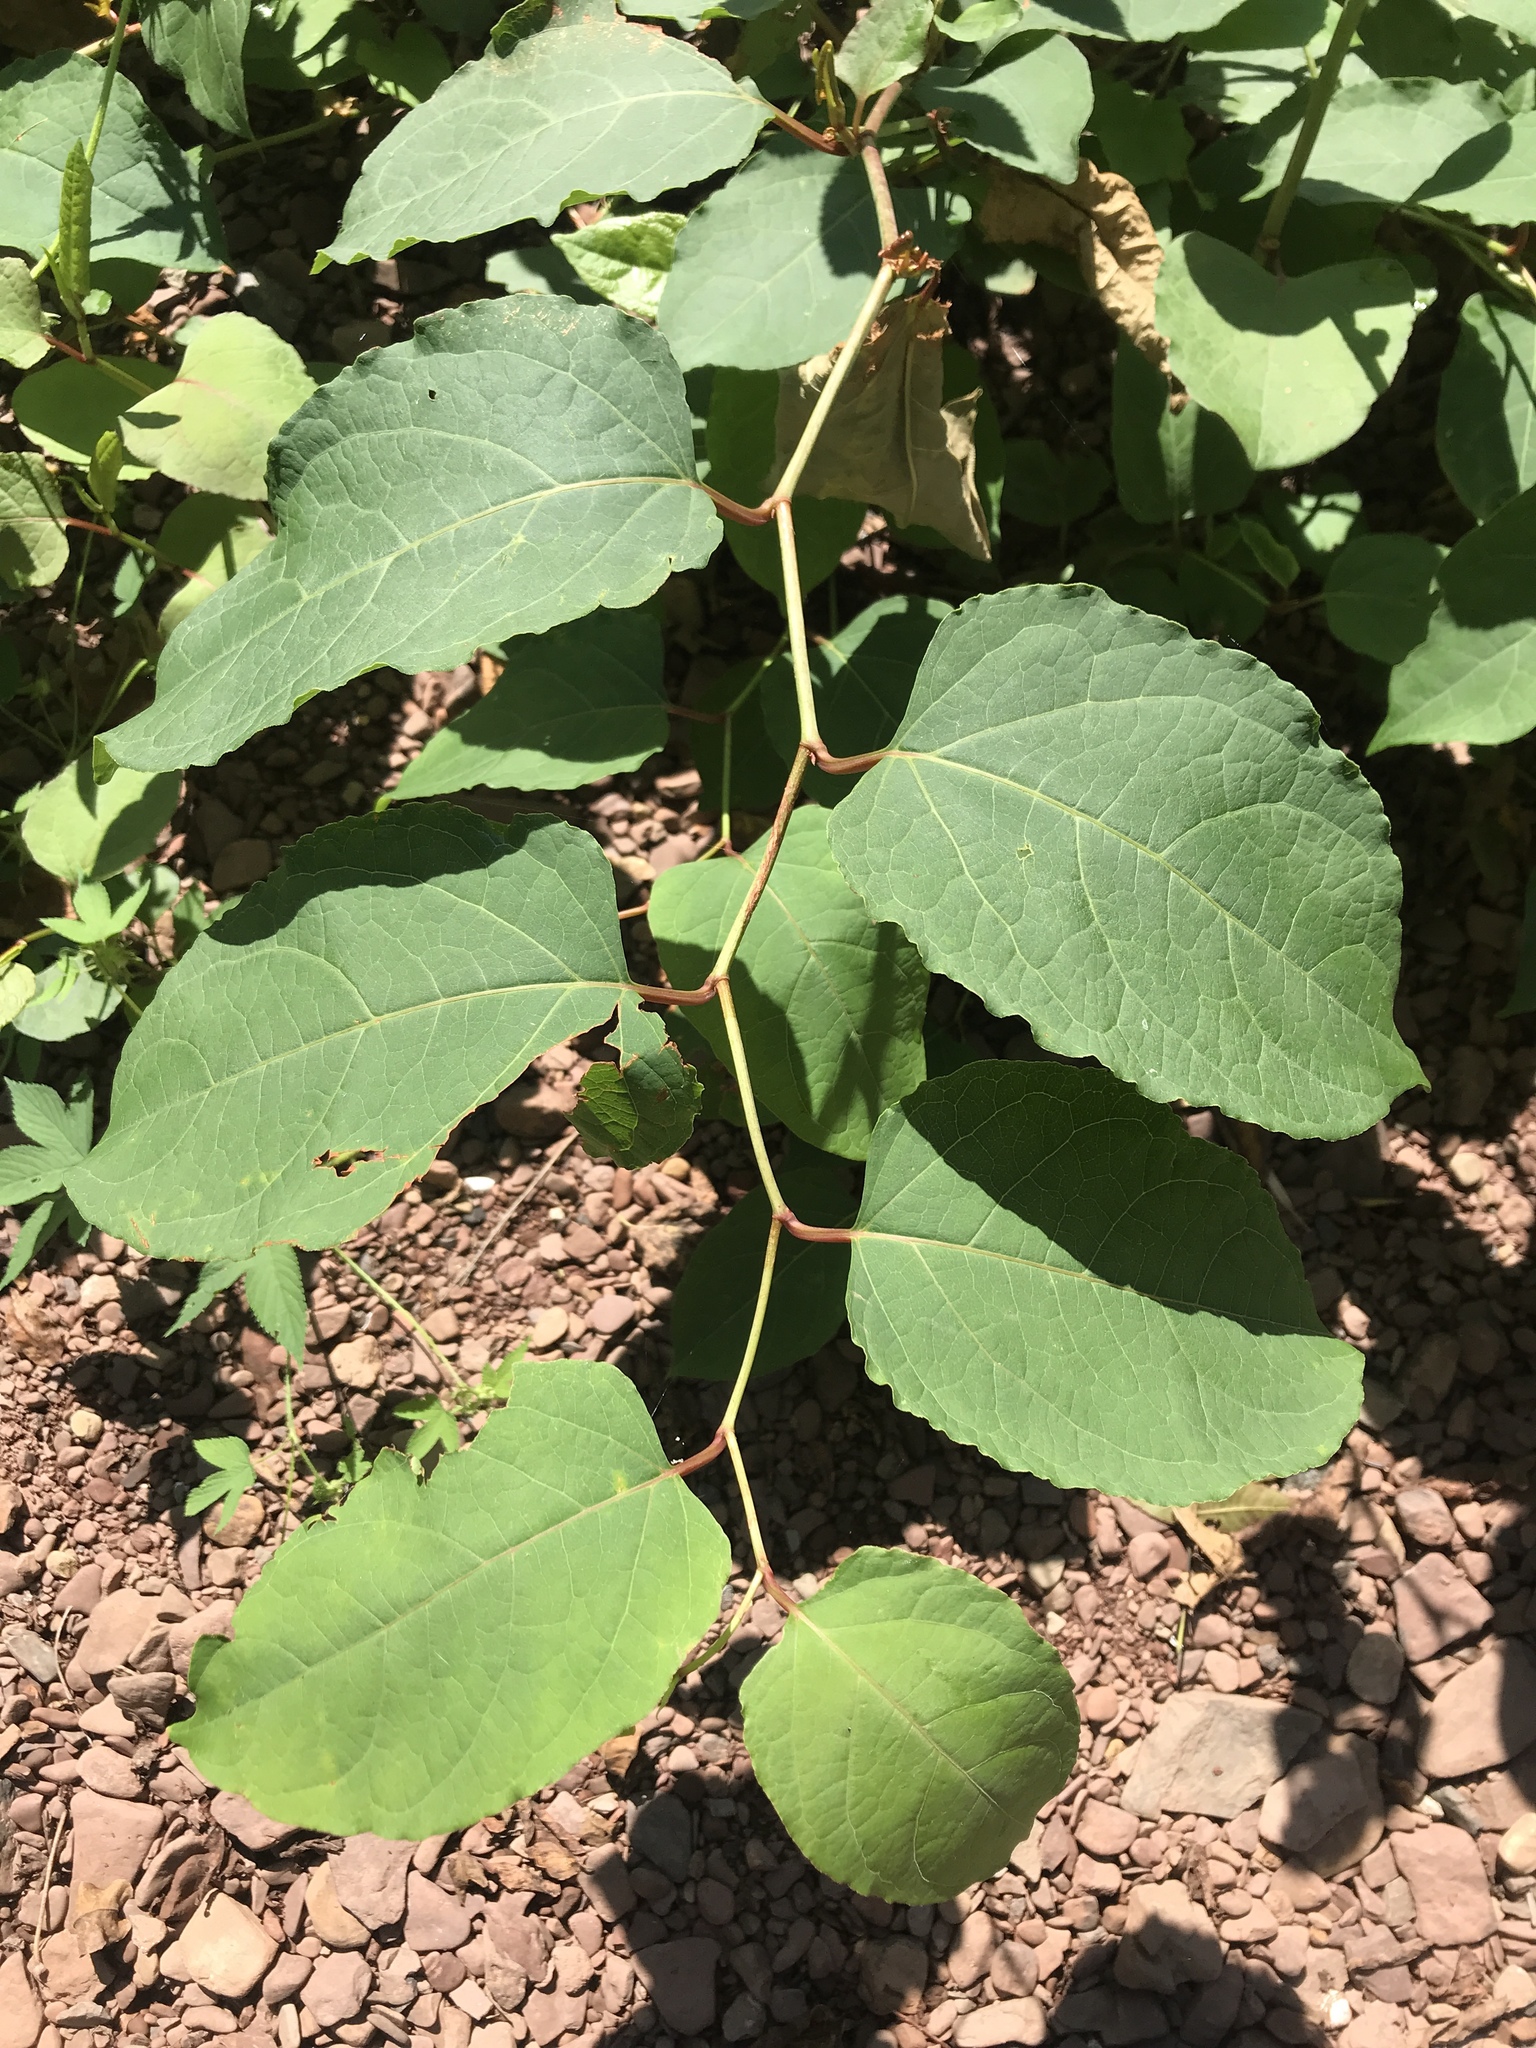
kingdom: Plantae
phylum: Tracheophyta
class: Magnoliopsida
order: Caryophyllales
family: Polygonaceae
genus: Reynoutria
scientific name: Reynoutria japonica
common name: Japanese knotweed
